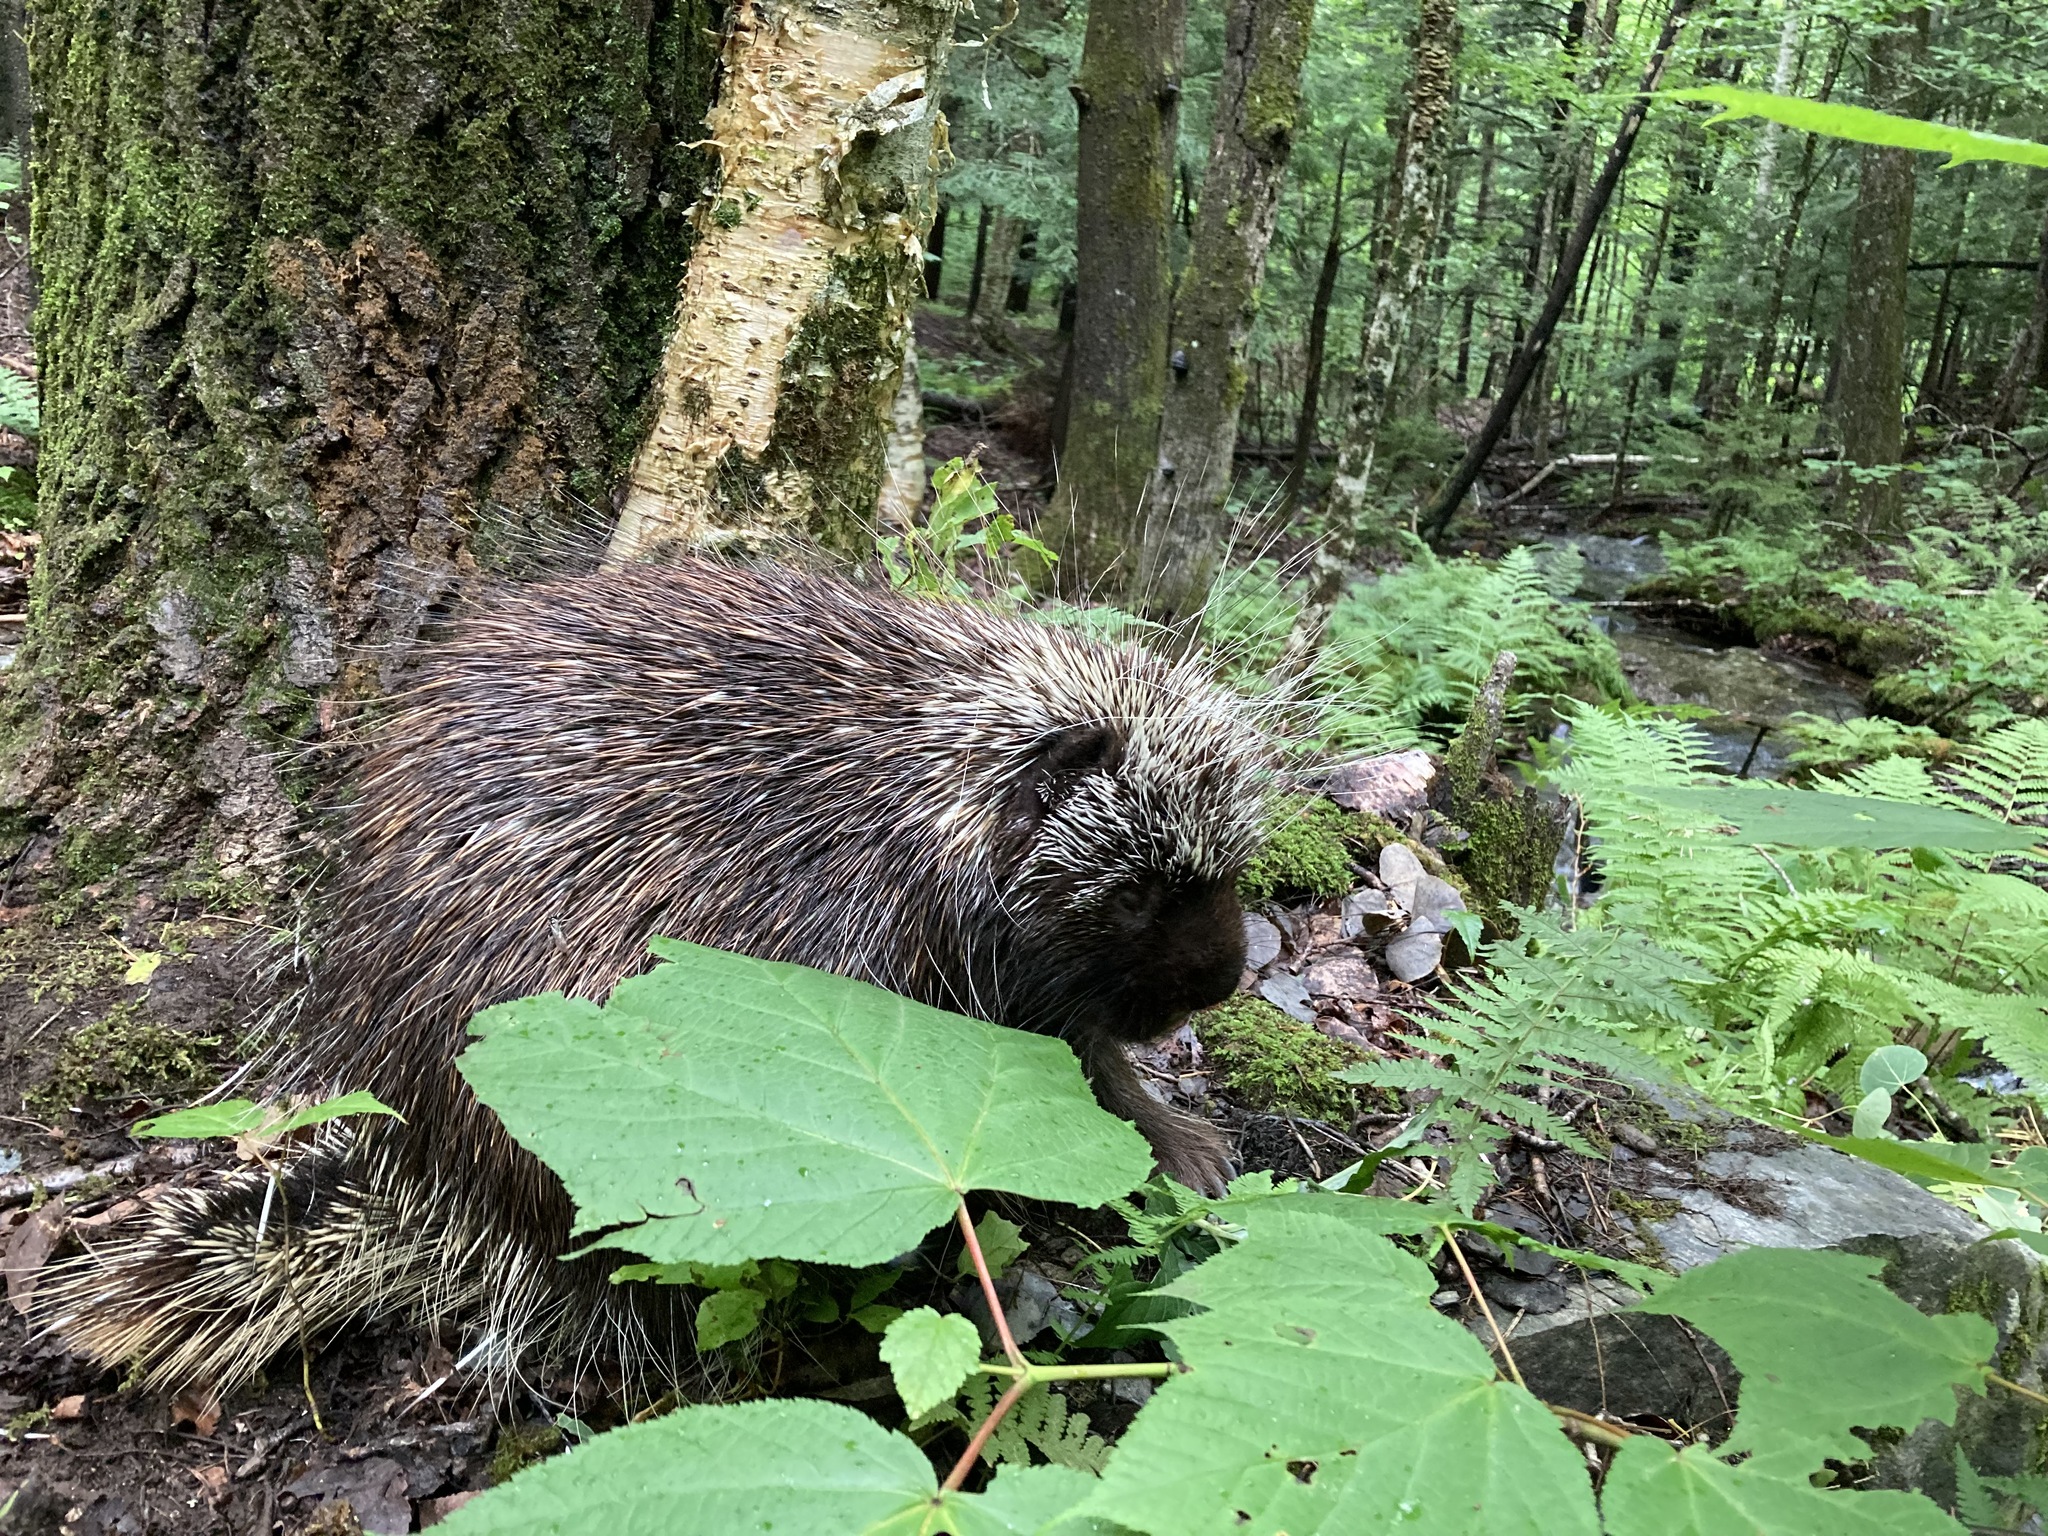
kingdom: Animalia
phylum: Chordata
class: Mammalia
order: Rodentia
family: Erethizontidae
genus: Erethizon
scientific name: Erethizon dorsatus
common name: North american porcupine
